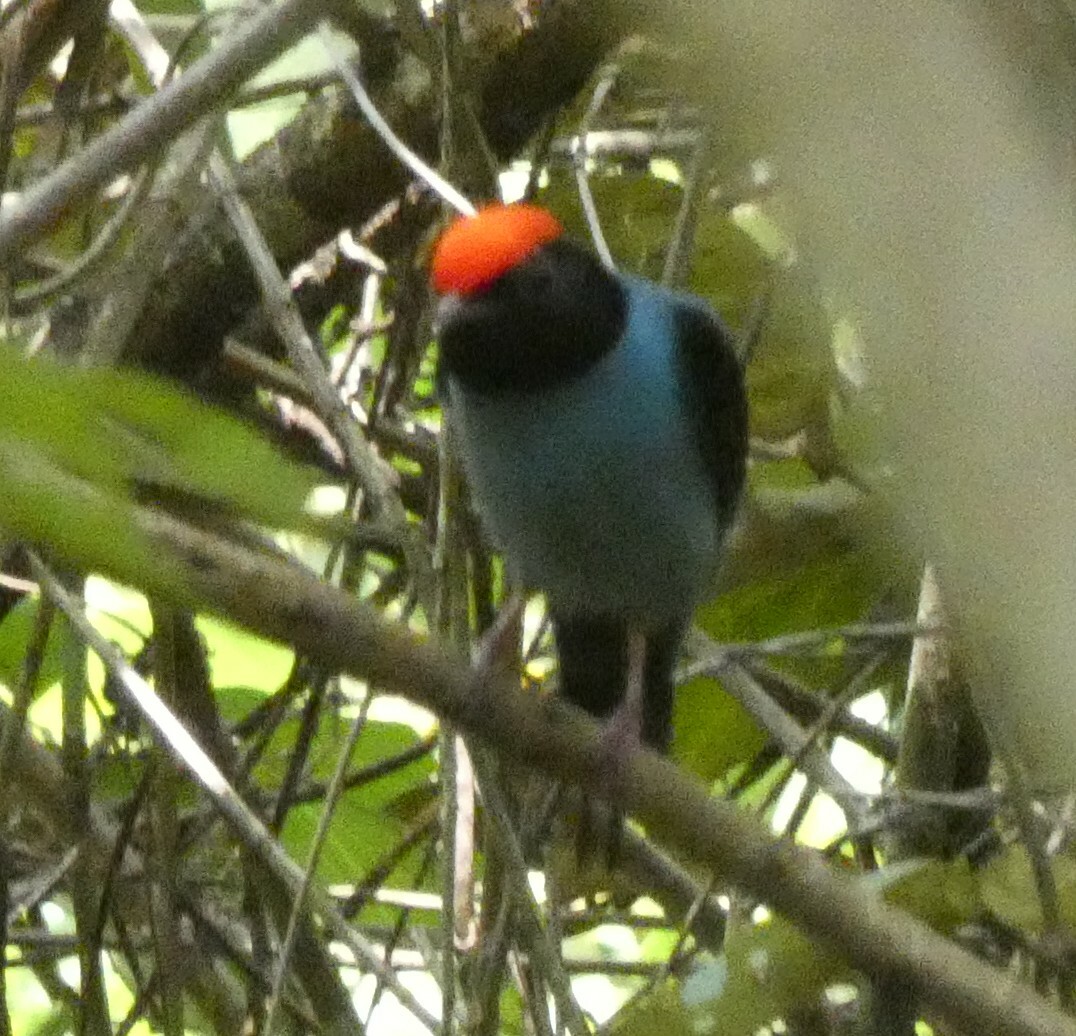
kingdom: Animalia
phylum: Chordata
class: Aves
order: Passeriformes
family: Pipridae
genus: Chiroxiphia
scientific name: Chiroxiphia caudata
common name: Blue manakin
